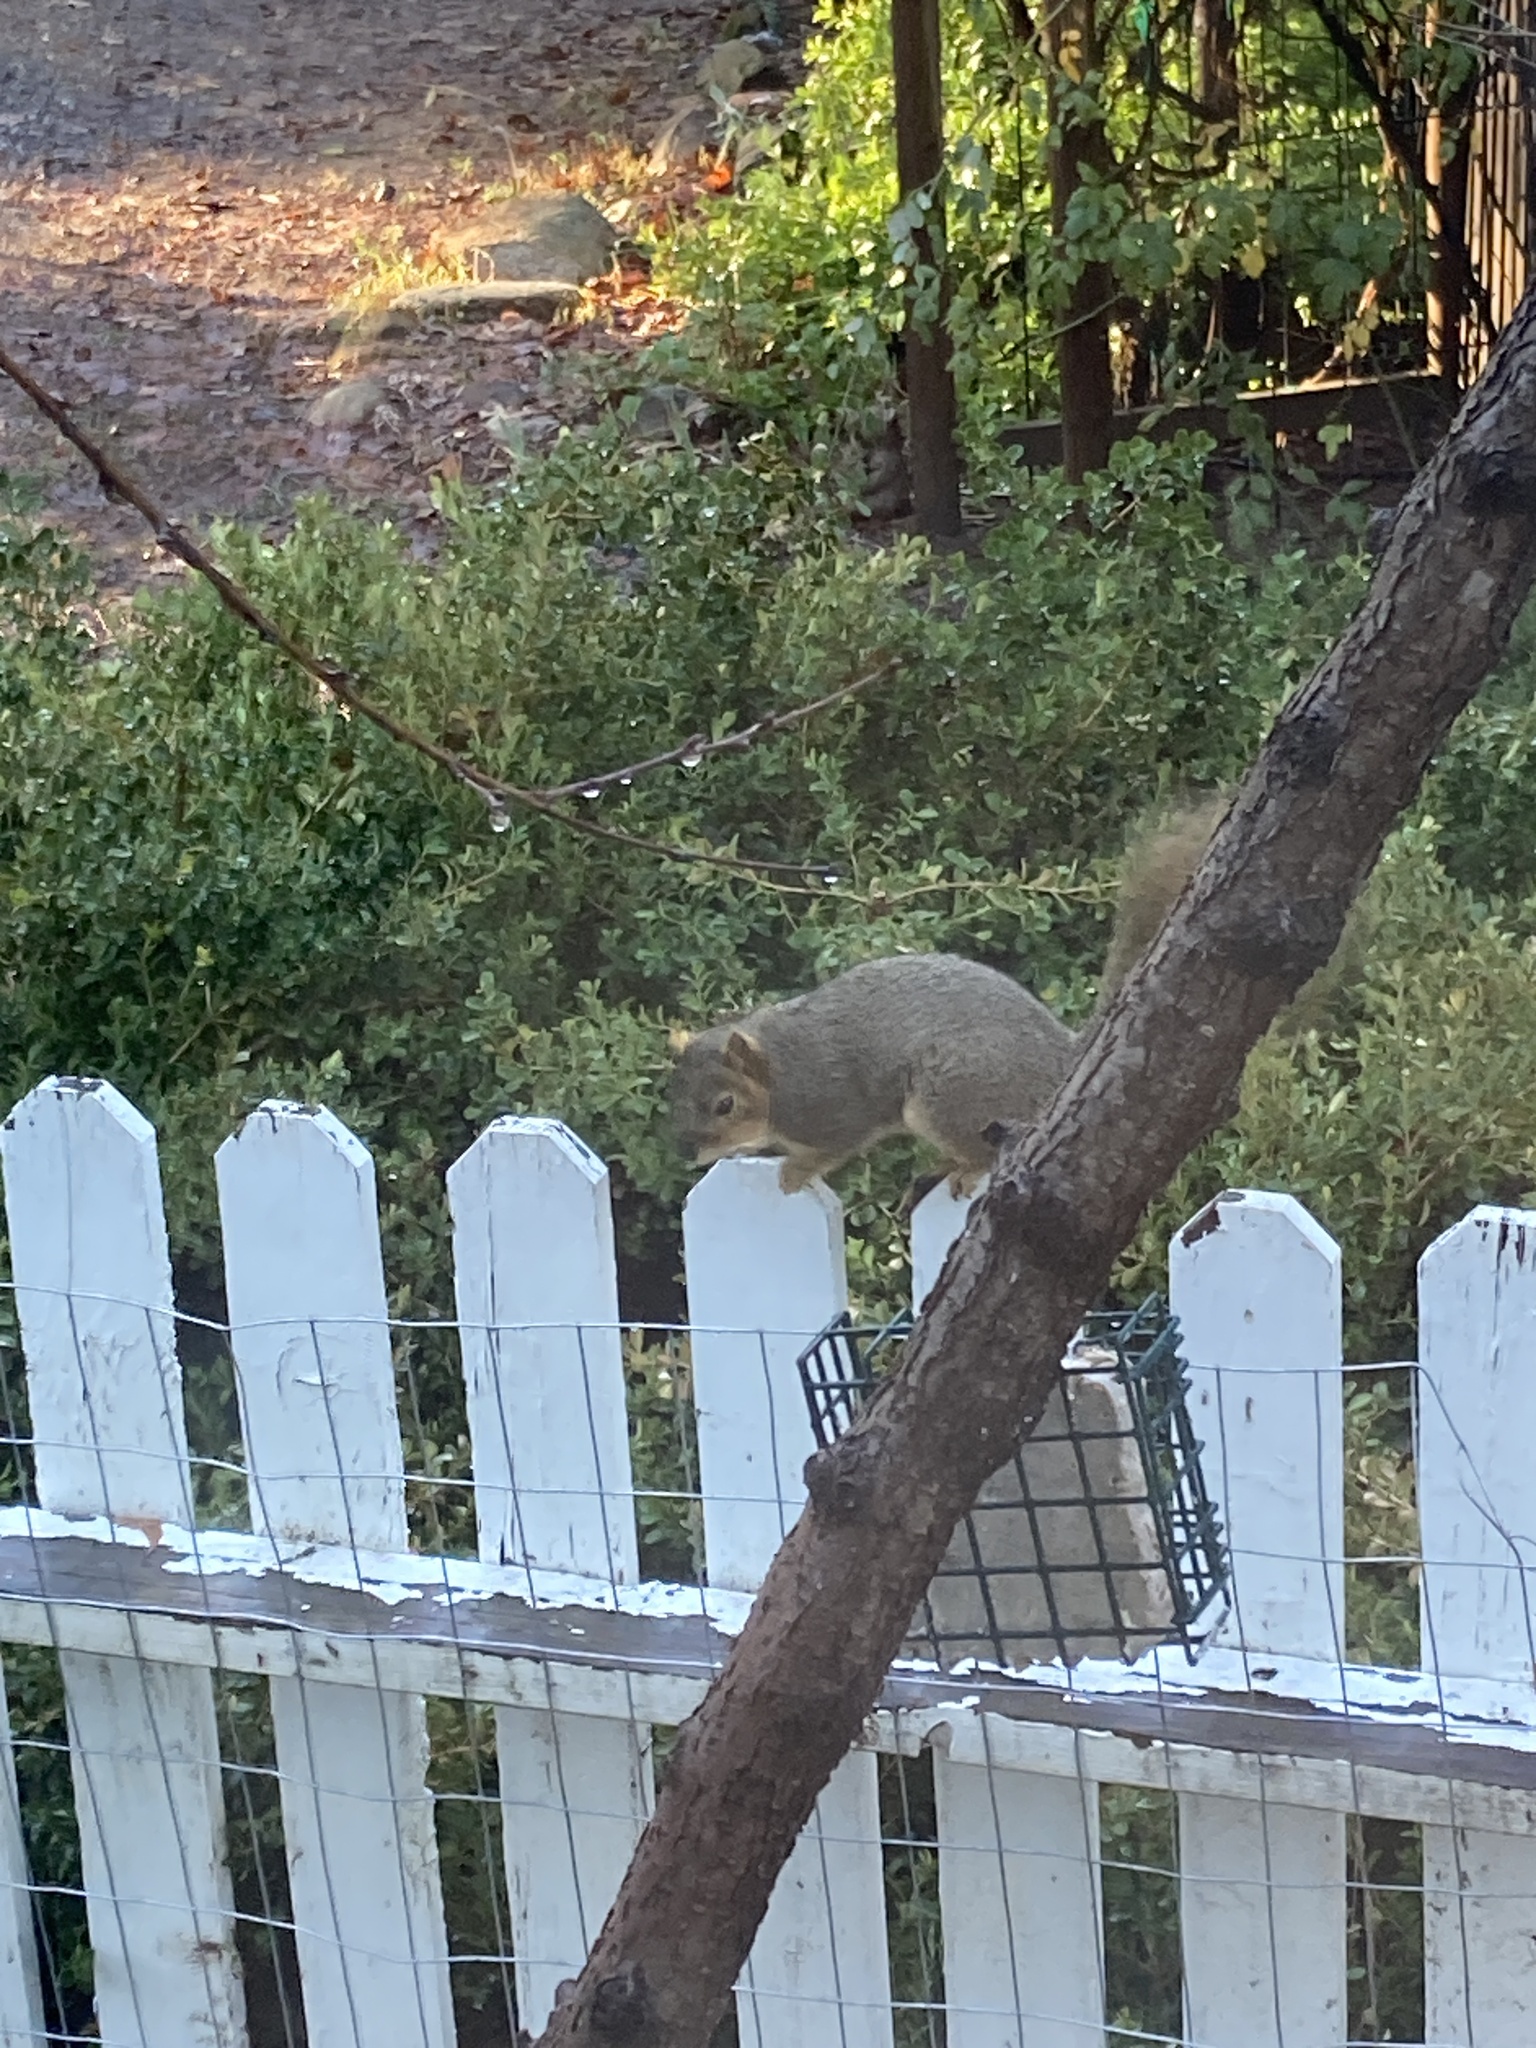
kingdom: Animalia
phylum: Chordata
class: Mammalia
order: Rodentia
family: Sciuridae
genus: Sciurus
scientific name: Sciurus niger
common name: Fox squirrel
